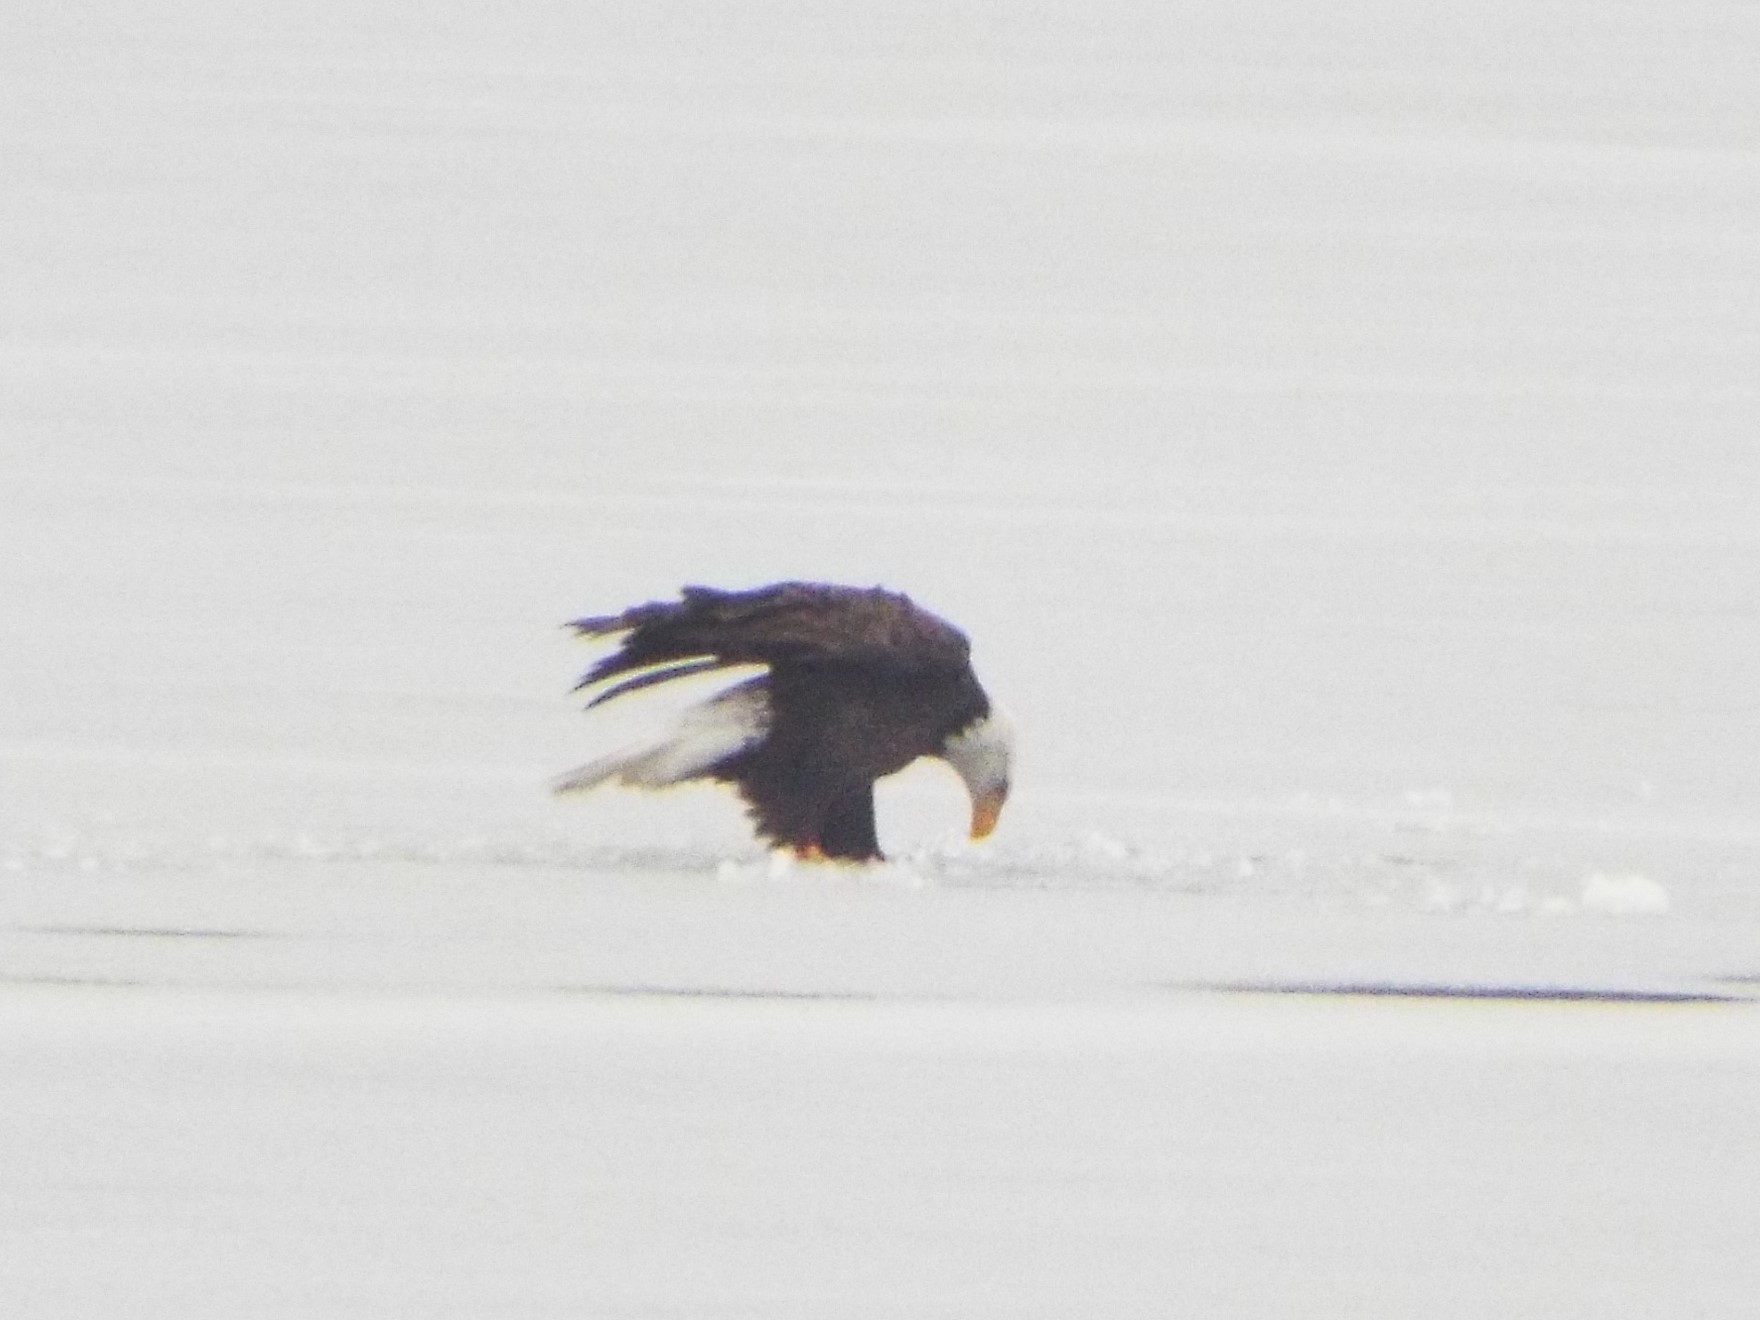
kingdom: Animalia
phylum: Chordata
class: Aves
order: Accipitriformes
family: Accipitridae
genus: Haliaeetus
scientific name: Haliaeetus leucocephalus
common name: Bald eagle
